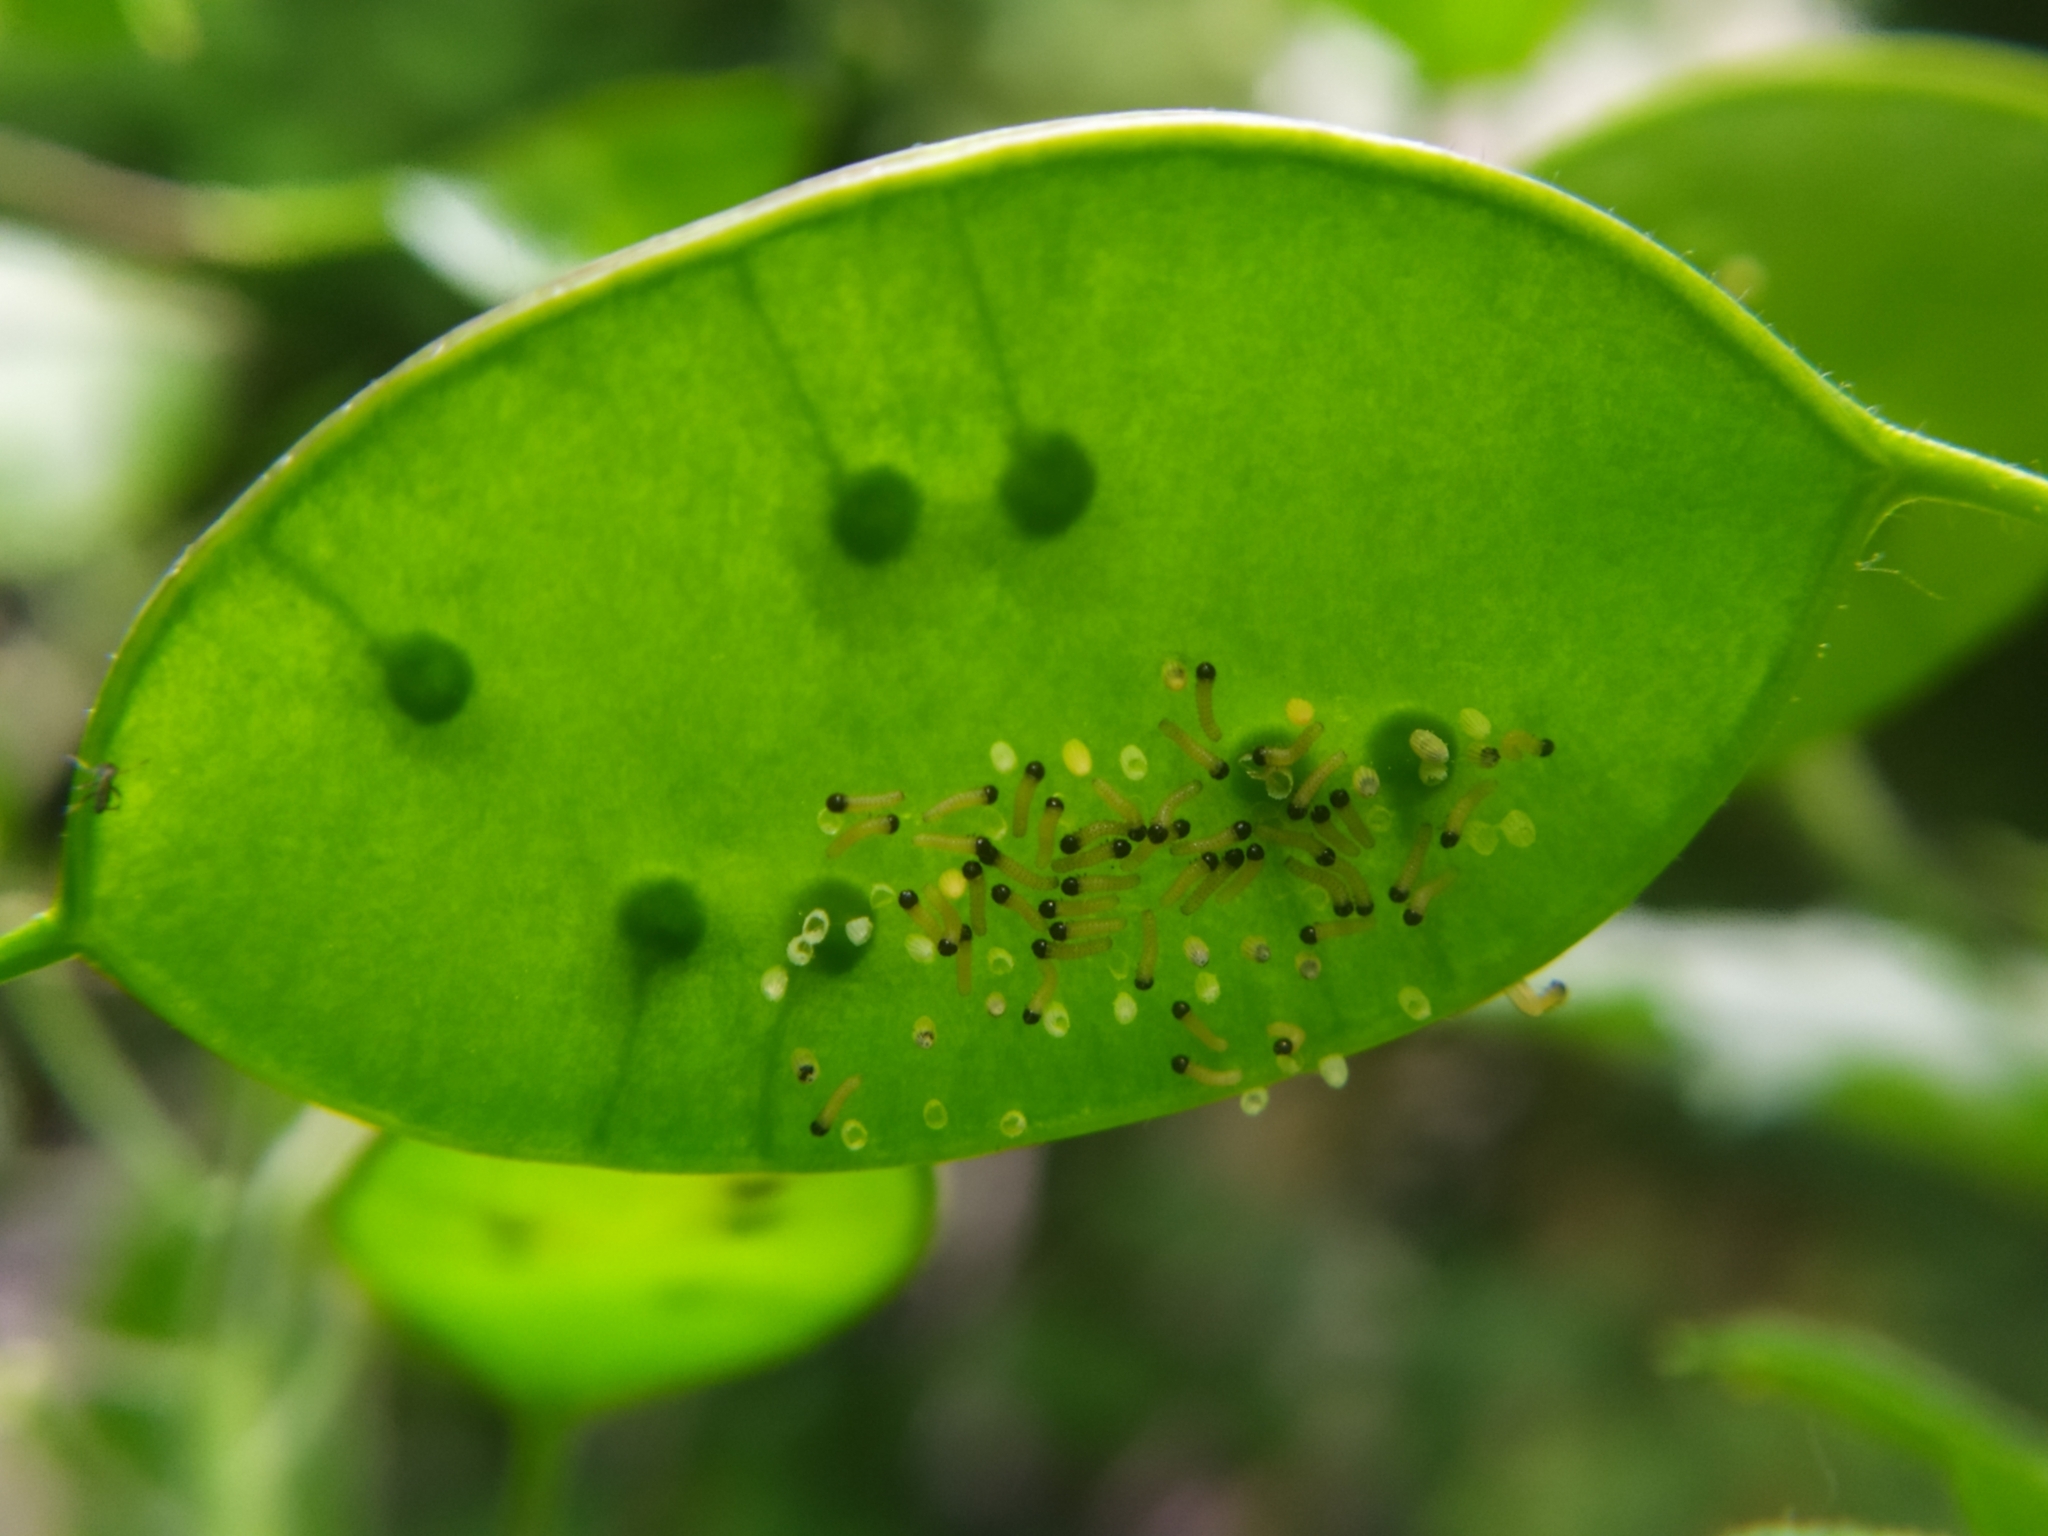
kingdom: Animalia
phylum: Arthropoda
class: Insecta
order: Lepidoptera
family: Pieridae
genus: Pieris
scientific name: Pieris brassicae
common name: Large white
